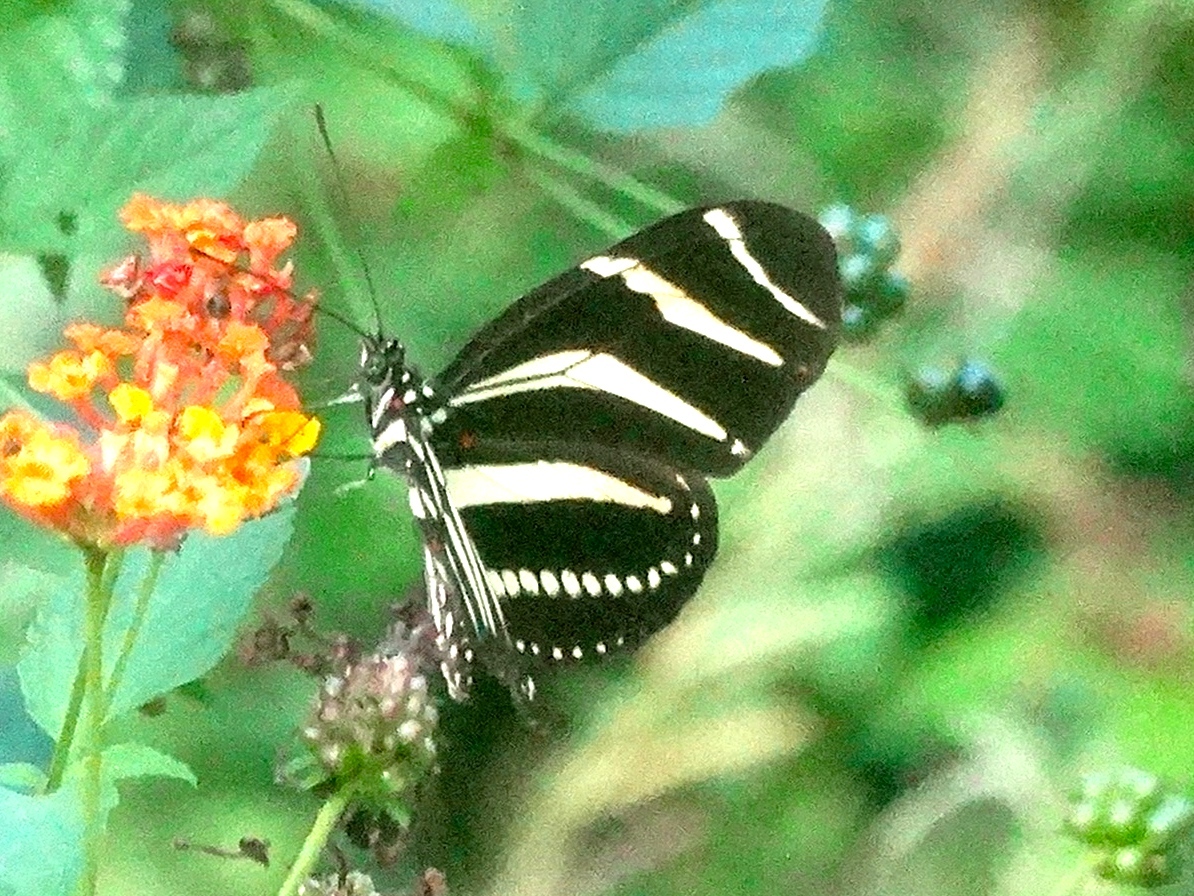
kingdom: Animalia
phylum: Arthropoda
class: Insecta
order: Lepidoptera
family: Nymphalidae
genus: Heliconius
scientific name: Heliconius charithonia
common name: Zebra long wing
